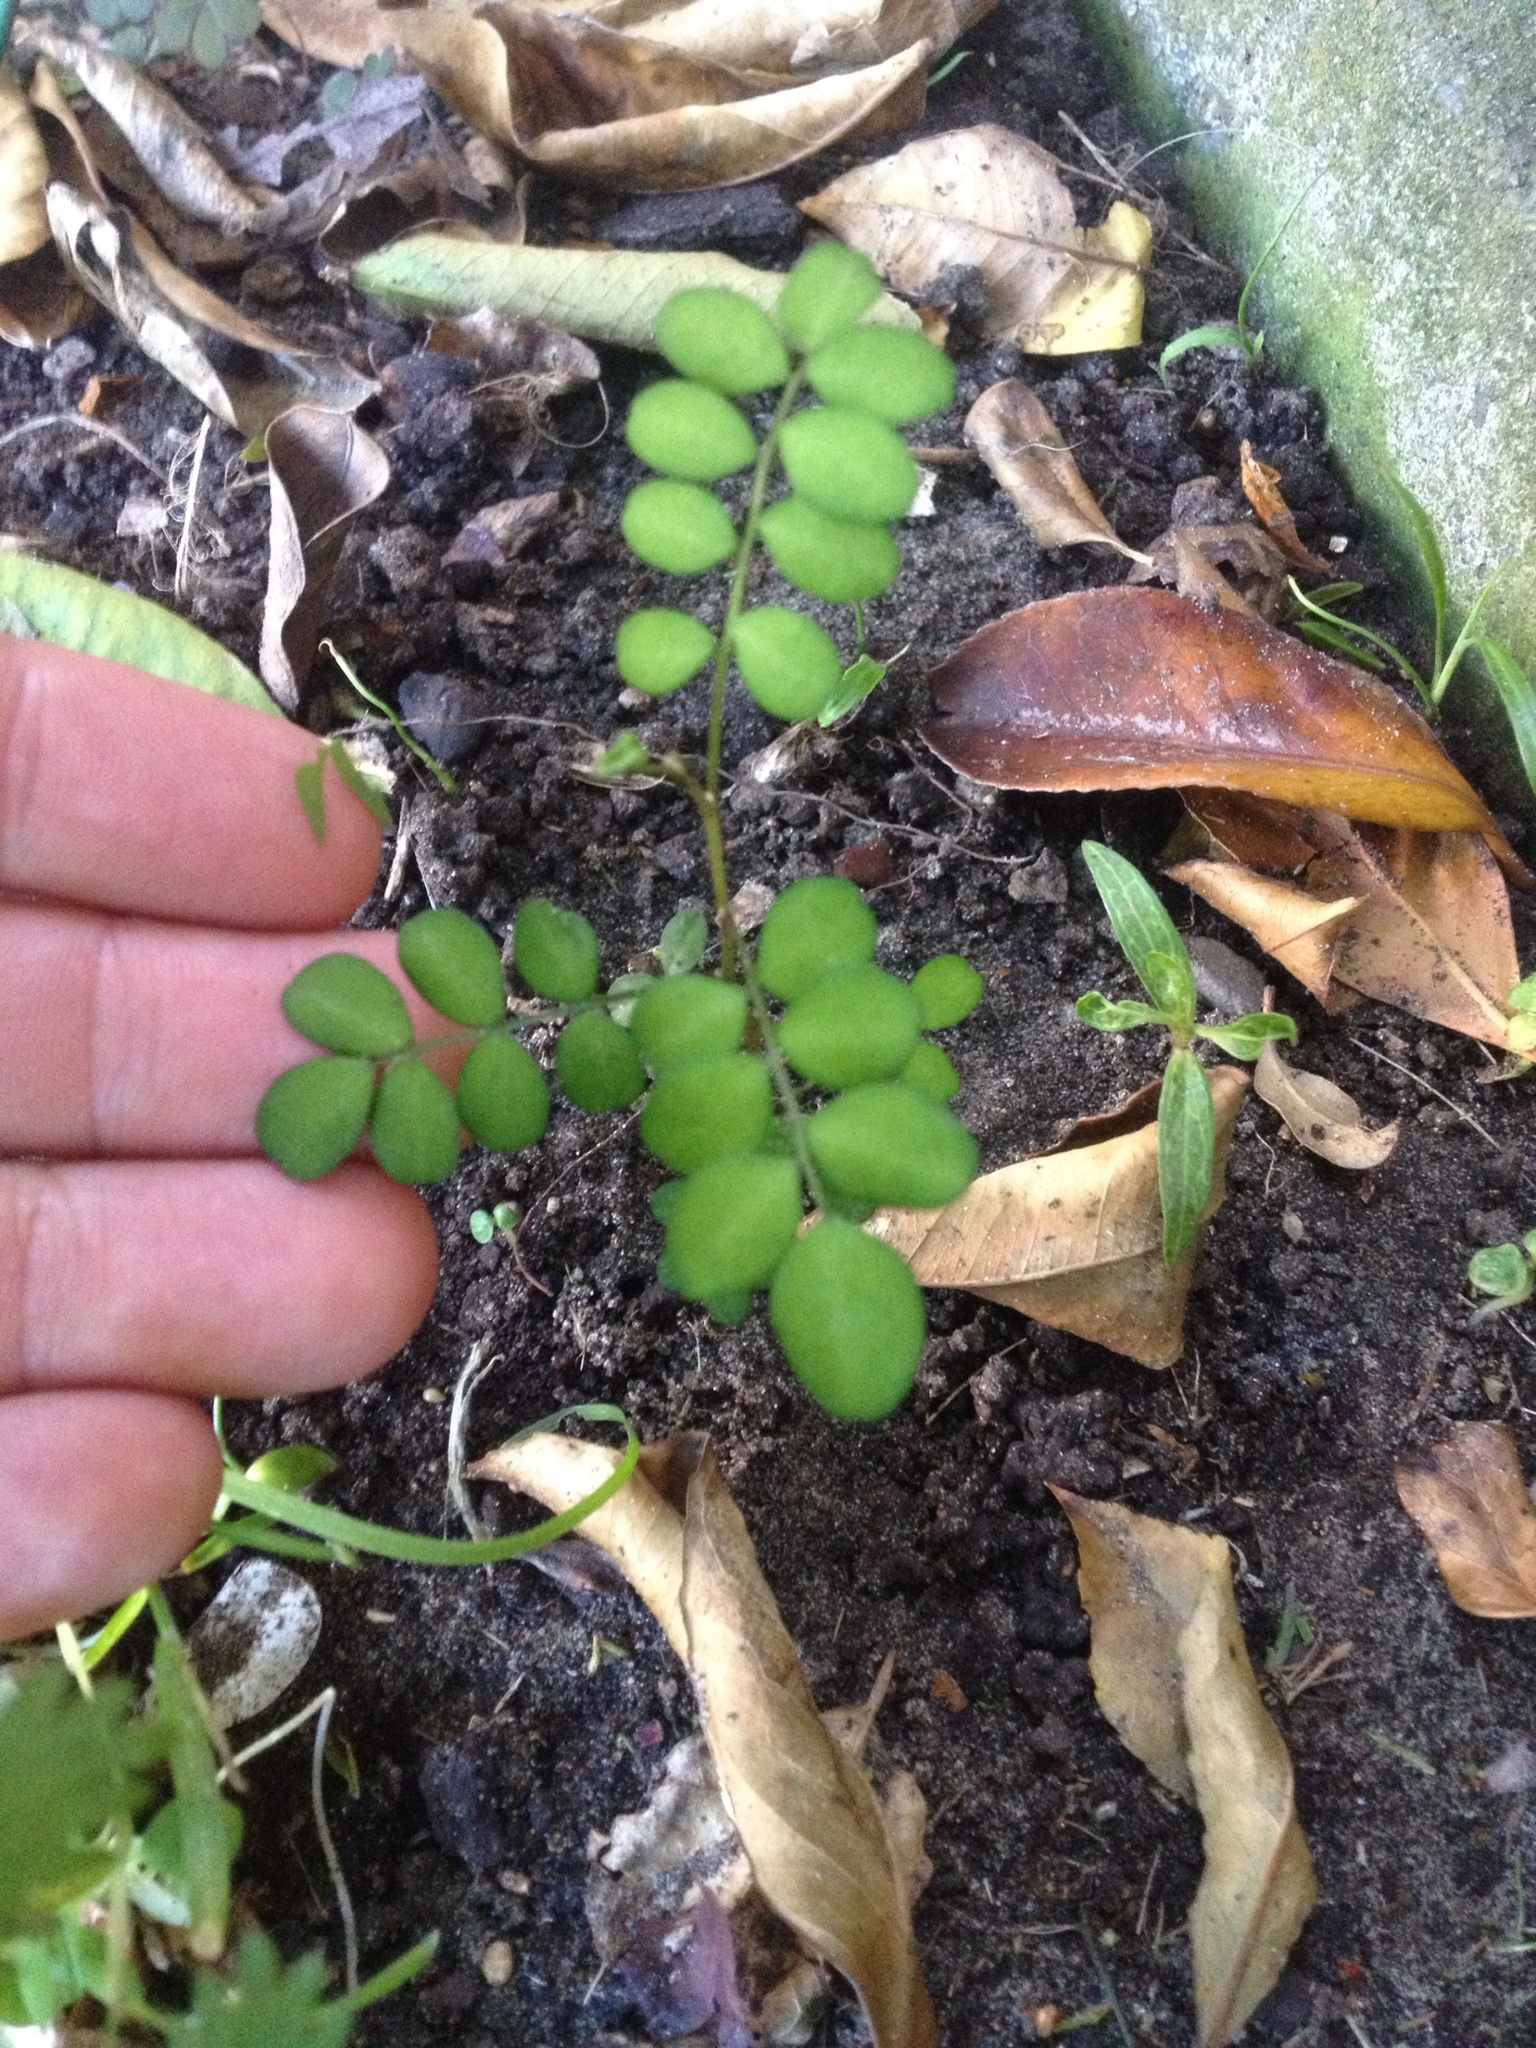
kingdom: Plantae
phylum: Tracheophyta
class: Magnoliopsida
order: Fabales
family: Fabaceae
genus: Sophora
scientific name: Sophora microphylla
